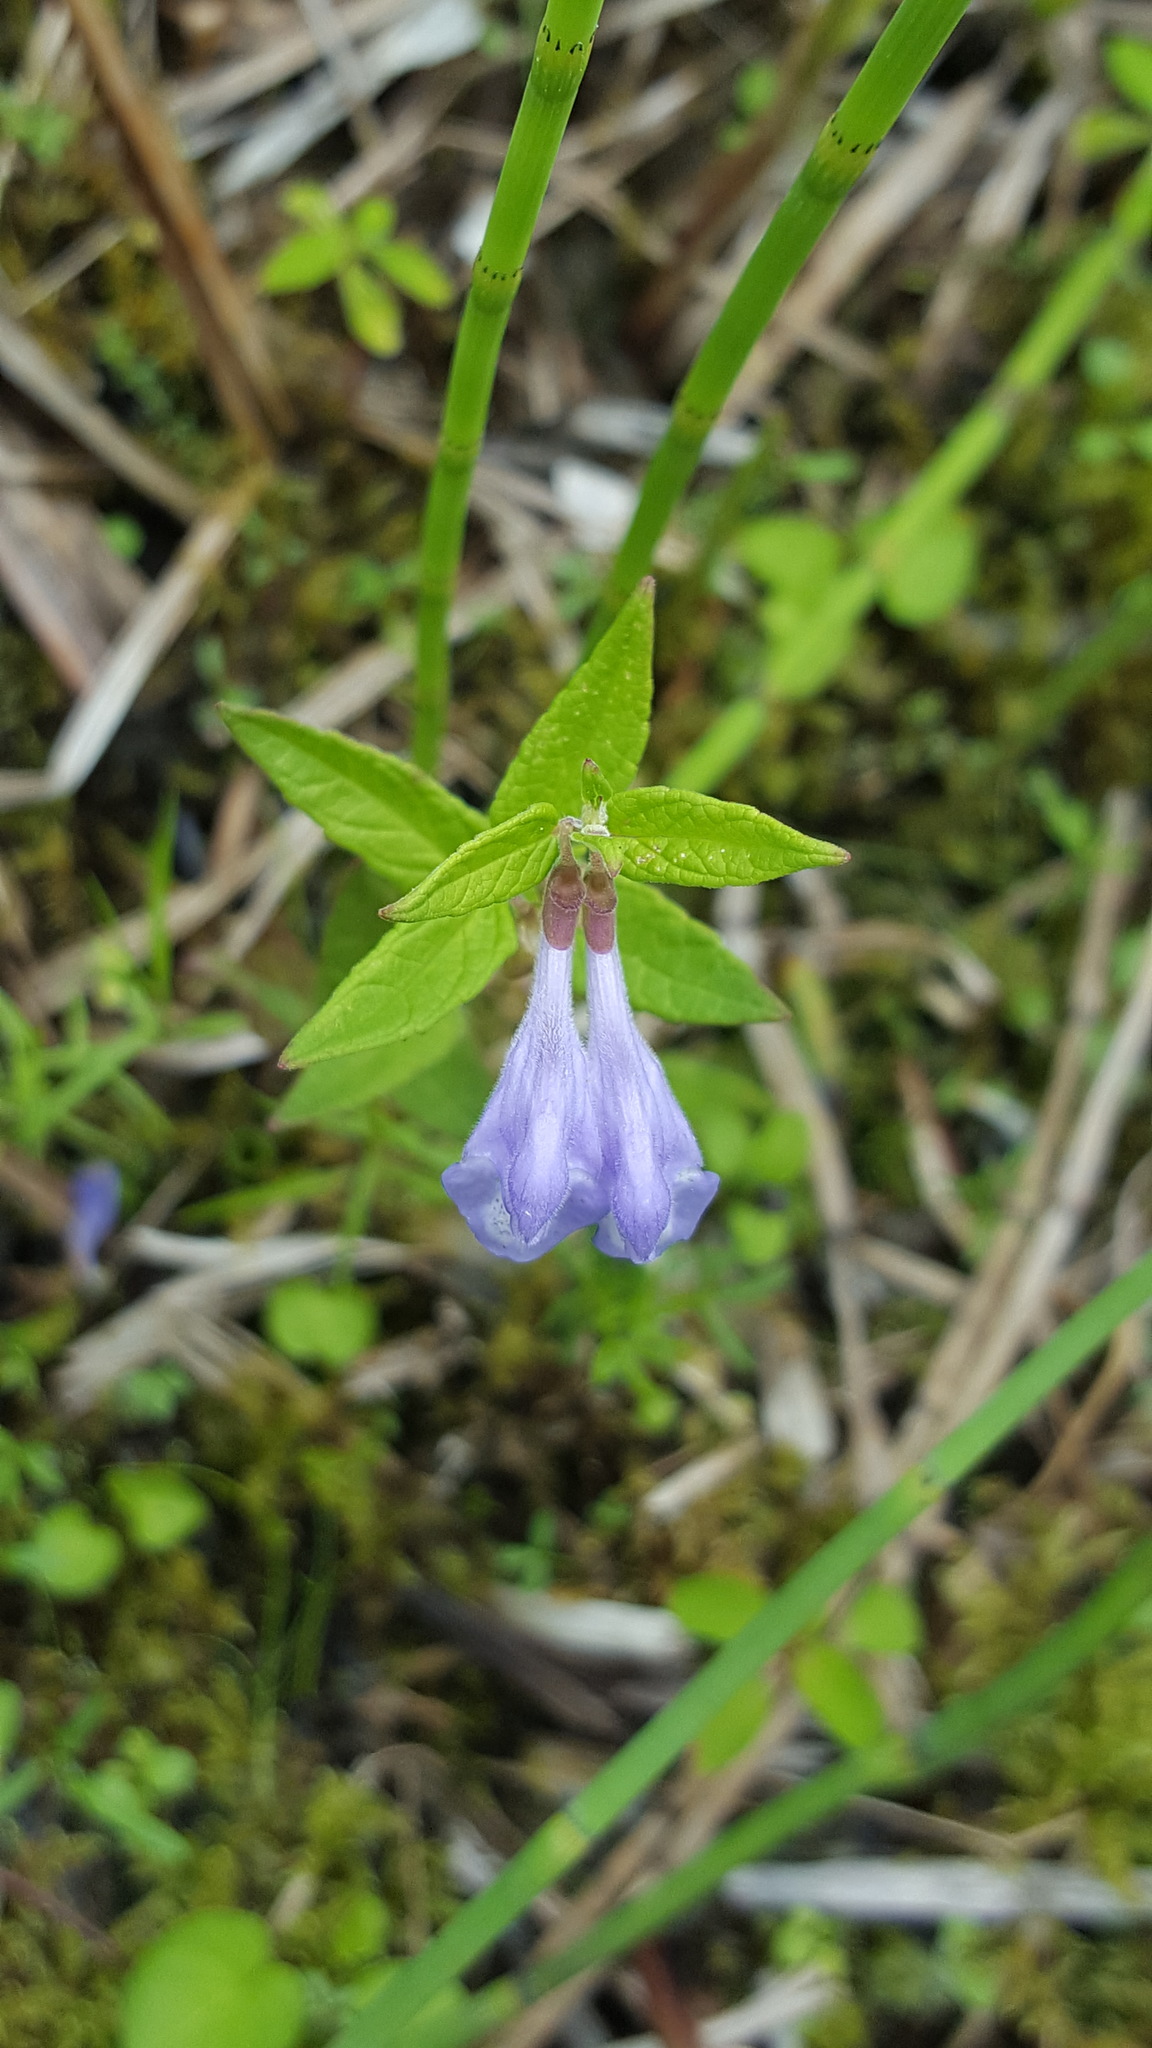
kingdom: Plantae
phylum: Tracheophyta
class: Magnoliopsida
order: Lamiales
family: Lamiaceae
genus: Scutellaria
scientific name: Scutellaria galericulata
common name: Skullcap
